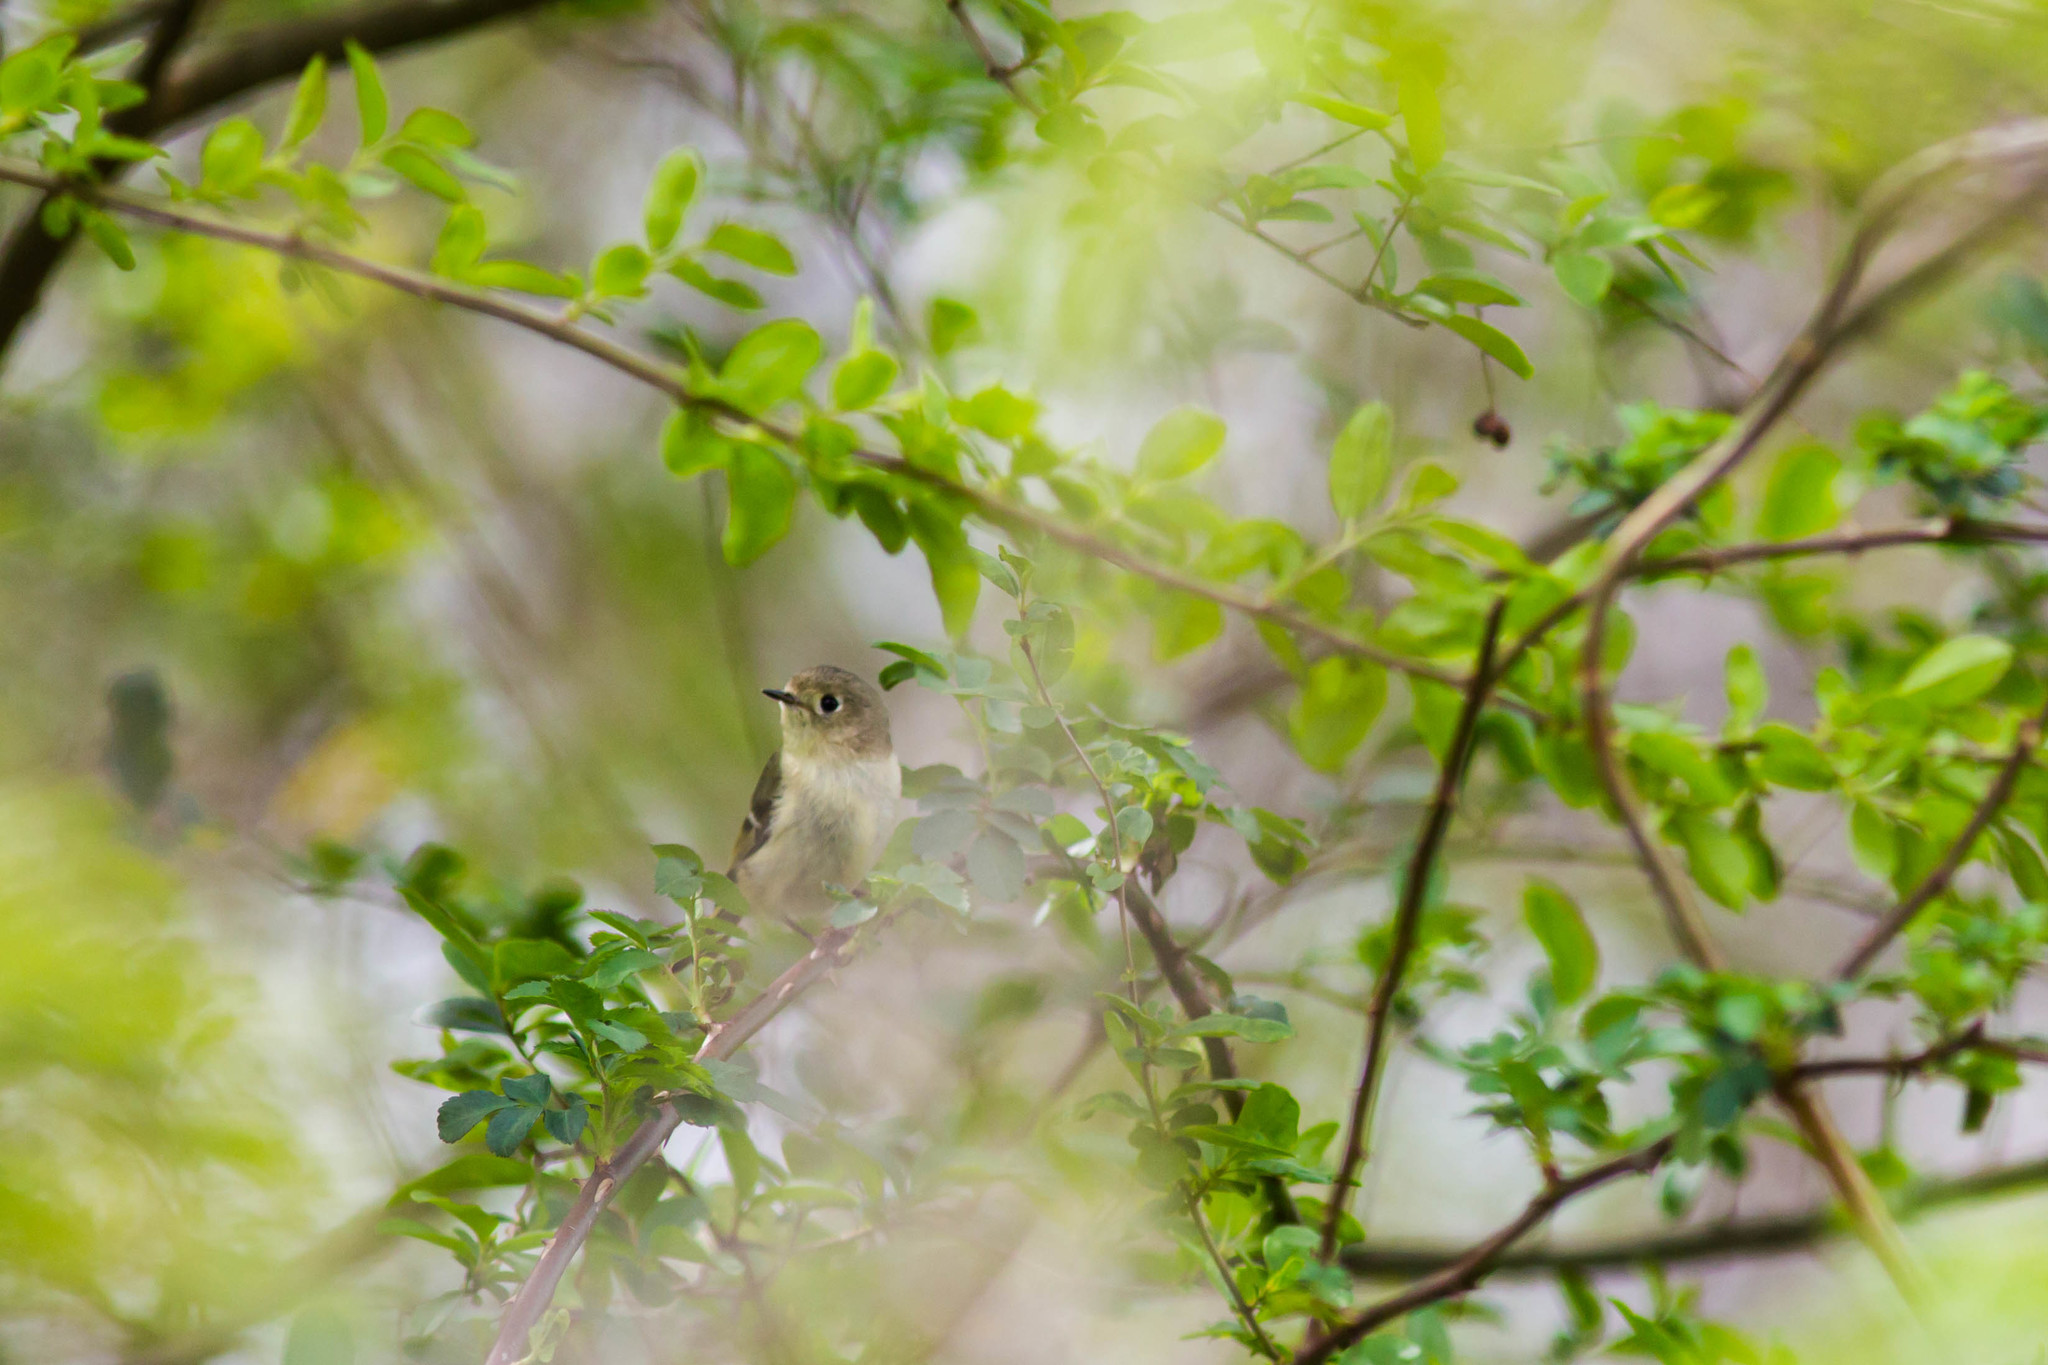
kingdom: Animalia
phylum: Chordata
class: Aves
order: Passeriformes
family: Regulidae
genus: Regulus
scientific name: Regulus calendula
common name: Ruby-crowned kinglet
